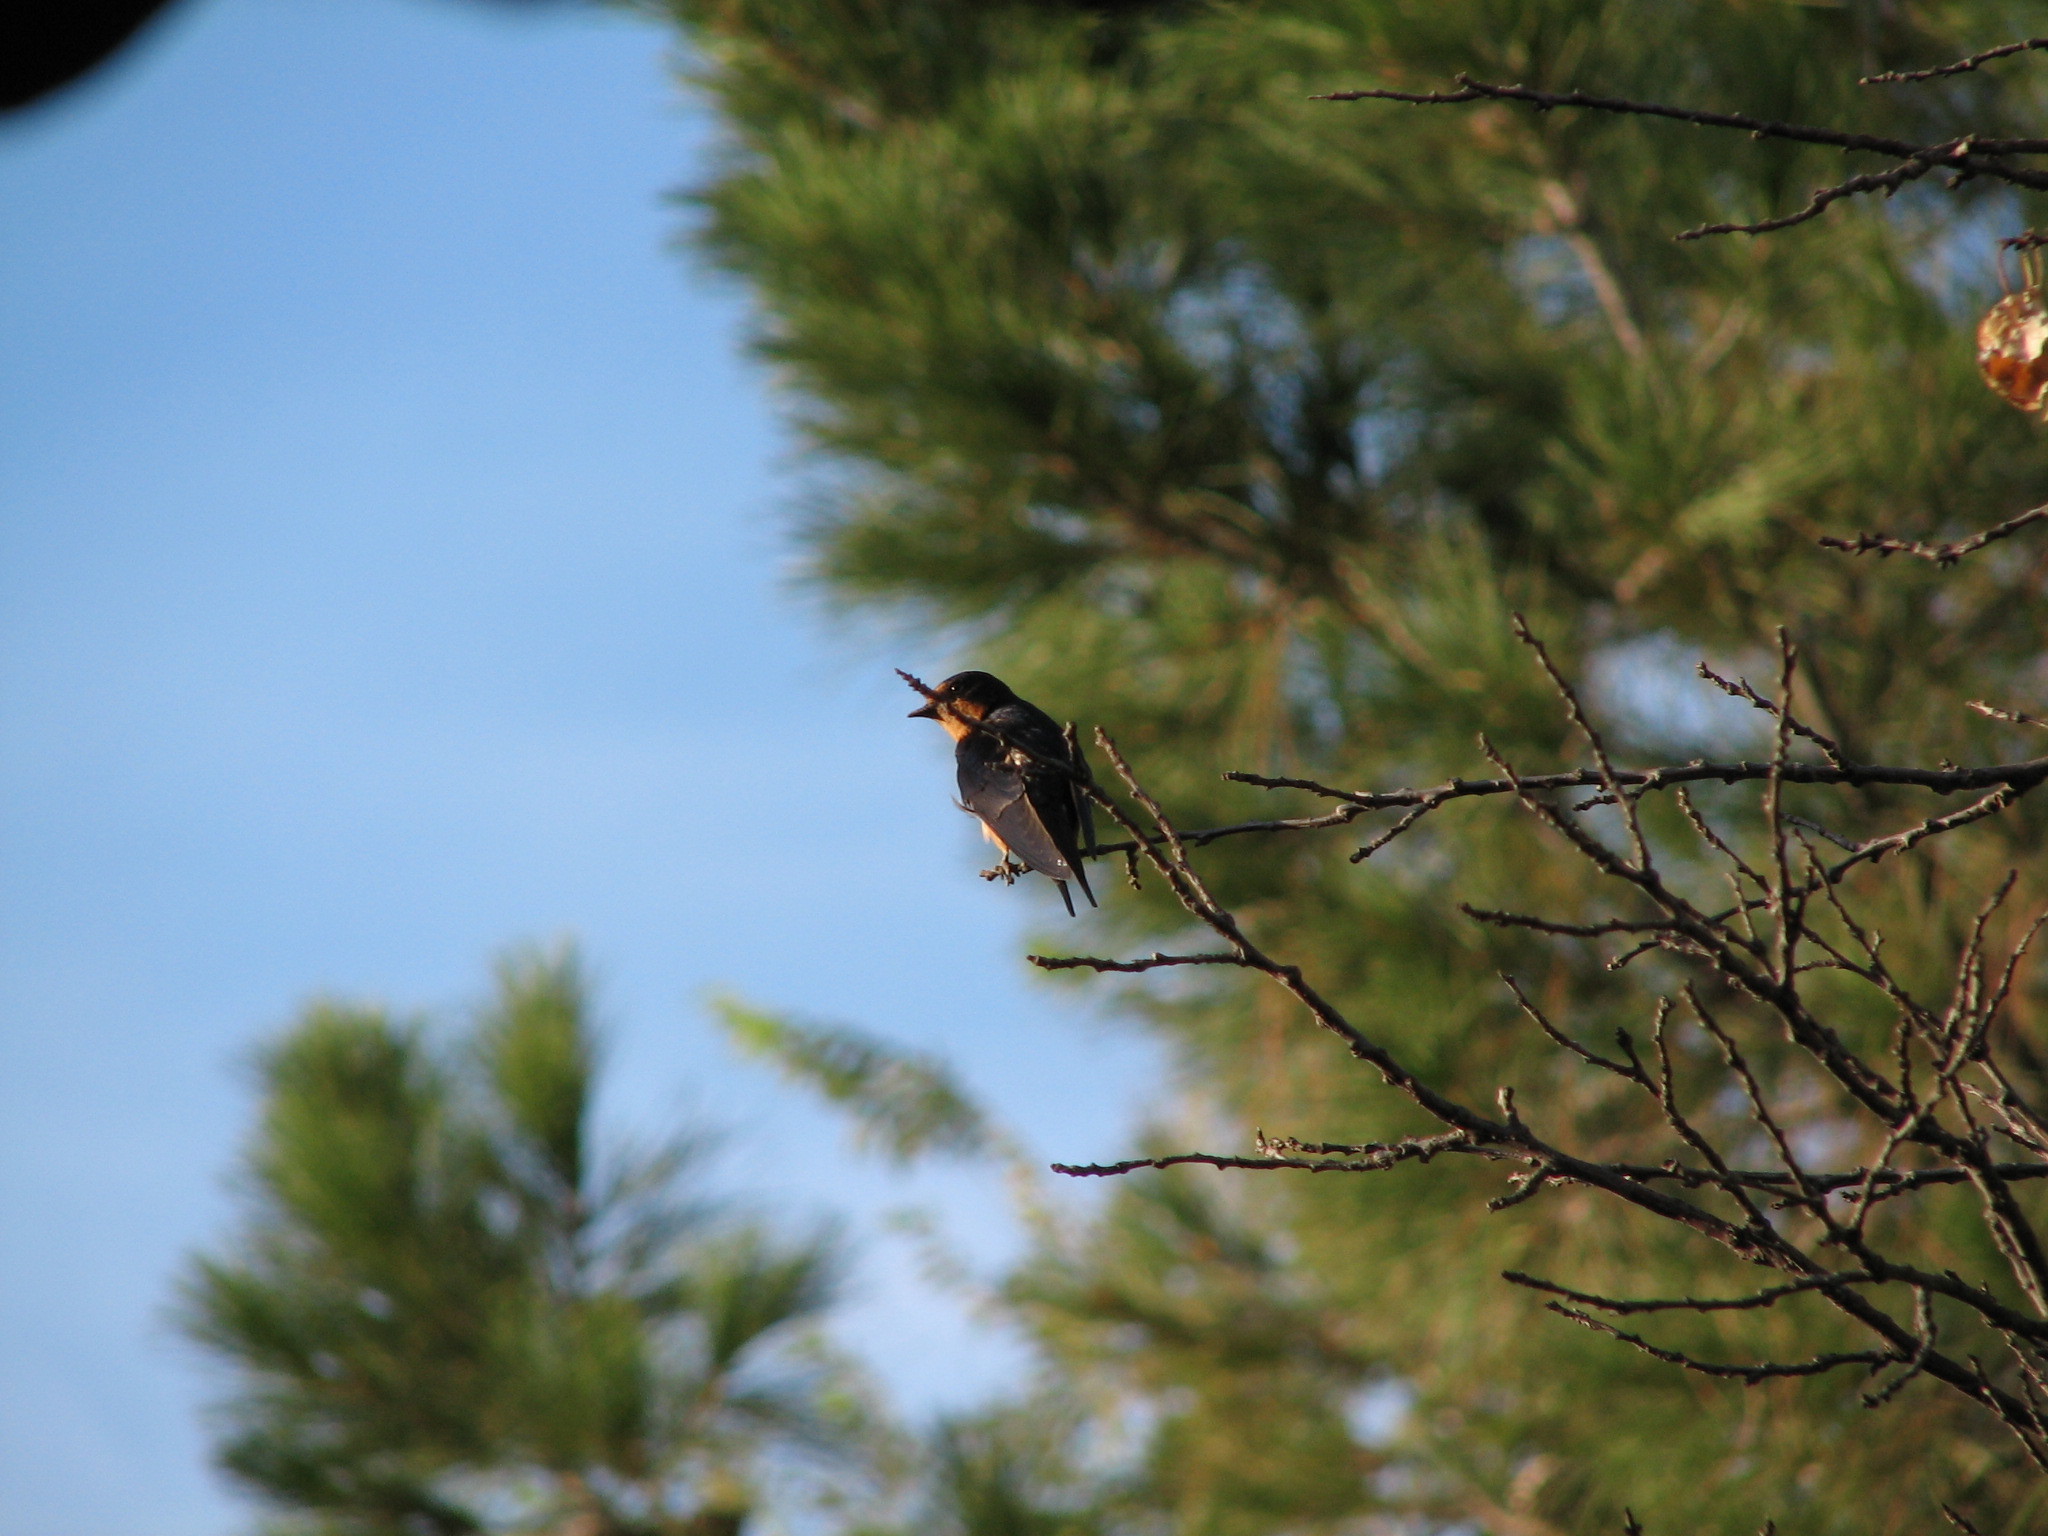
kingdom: Animalia
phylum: Chordata
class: Aves
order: Passeriformes
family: Hirundinidae
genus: Hirundo
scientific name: Hirundo rustica
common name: Barn swallow
